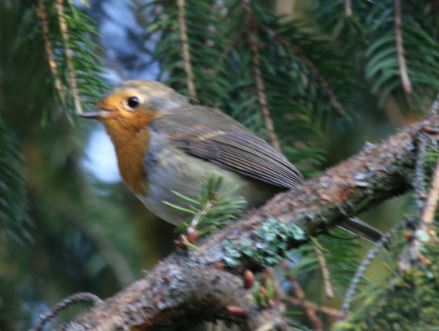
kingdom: Animalia
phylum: Chordata
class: Aves
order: Passeriformes
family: Muscicapidae
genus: Erithacus
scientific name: Erithacus rubecula
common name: European robin
